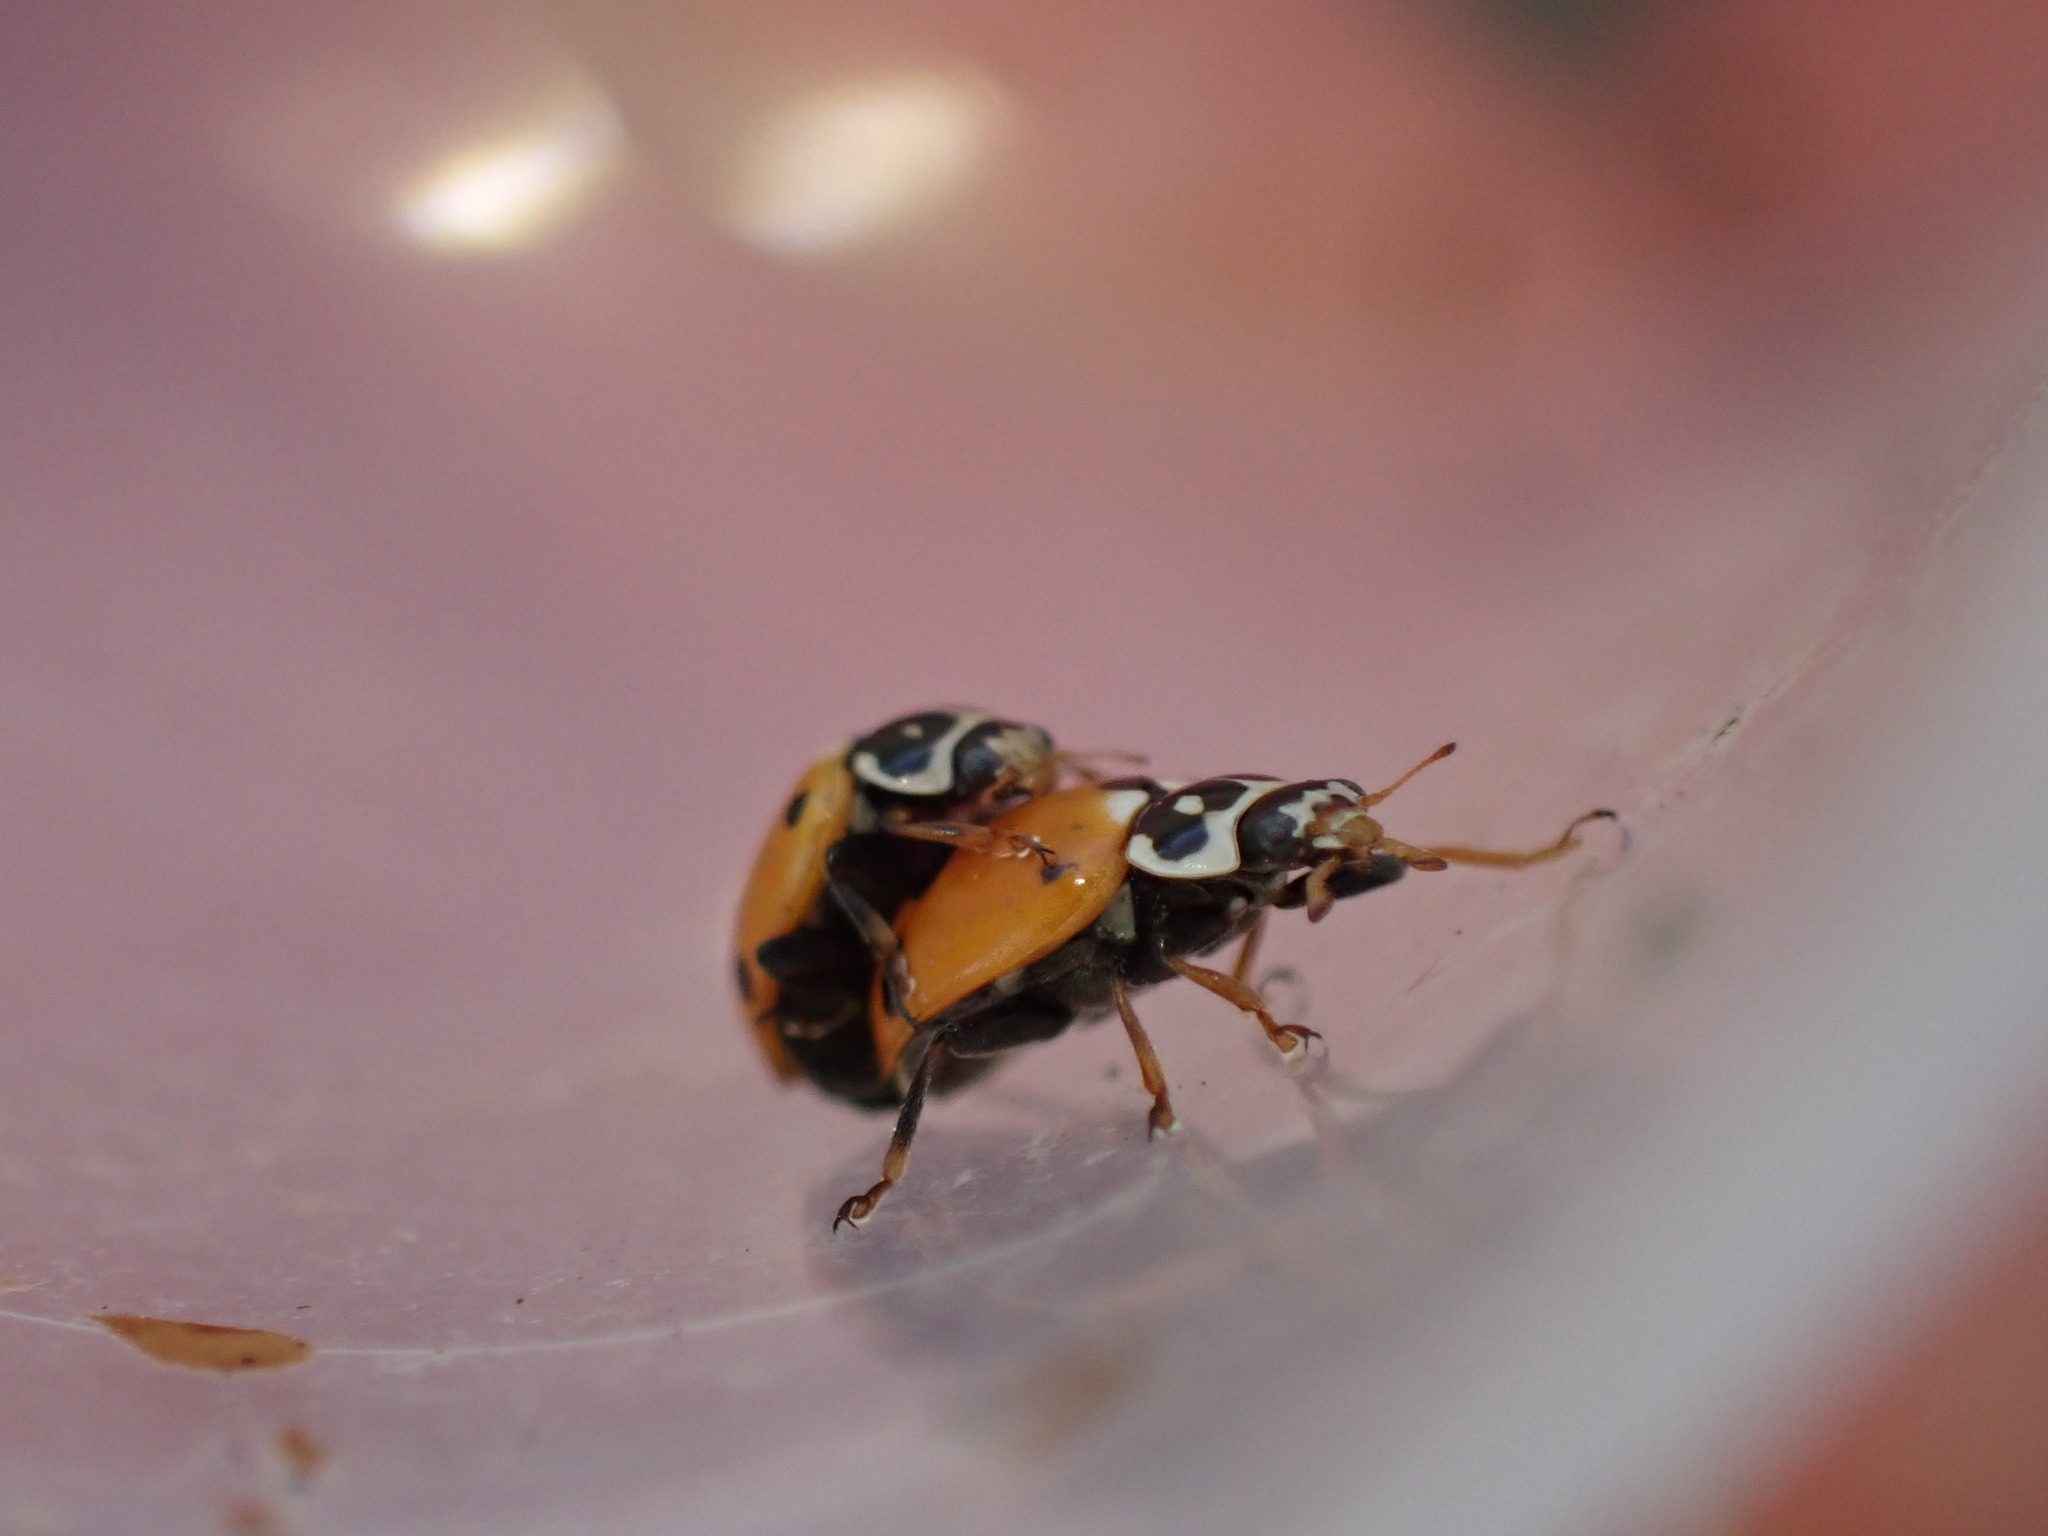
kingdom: Animalia
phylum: Arthropoda
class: Insecta
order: Coleoptera
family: Coccinellidae
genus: Hippodamia
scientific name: Hippodamia variegata
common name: Ladybird beetle
